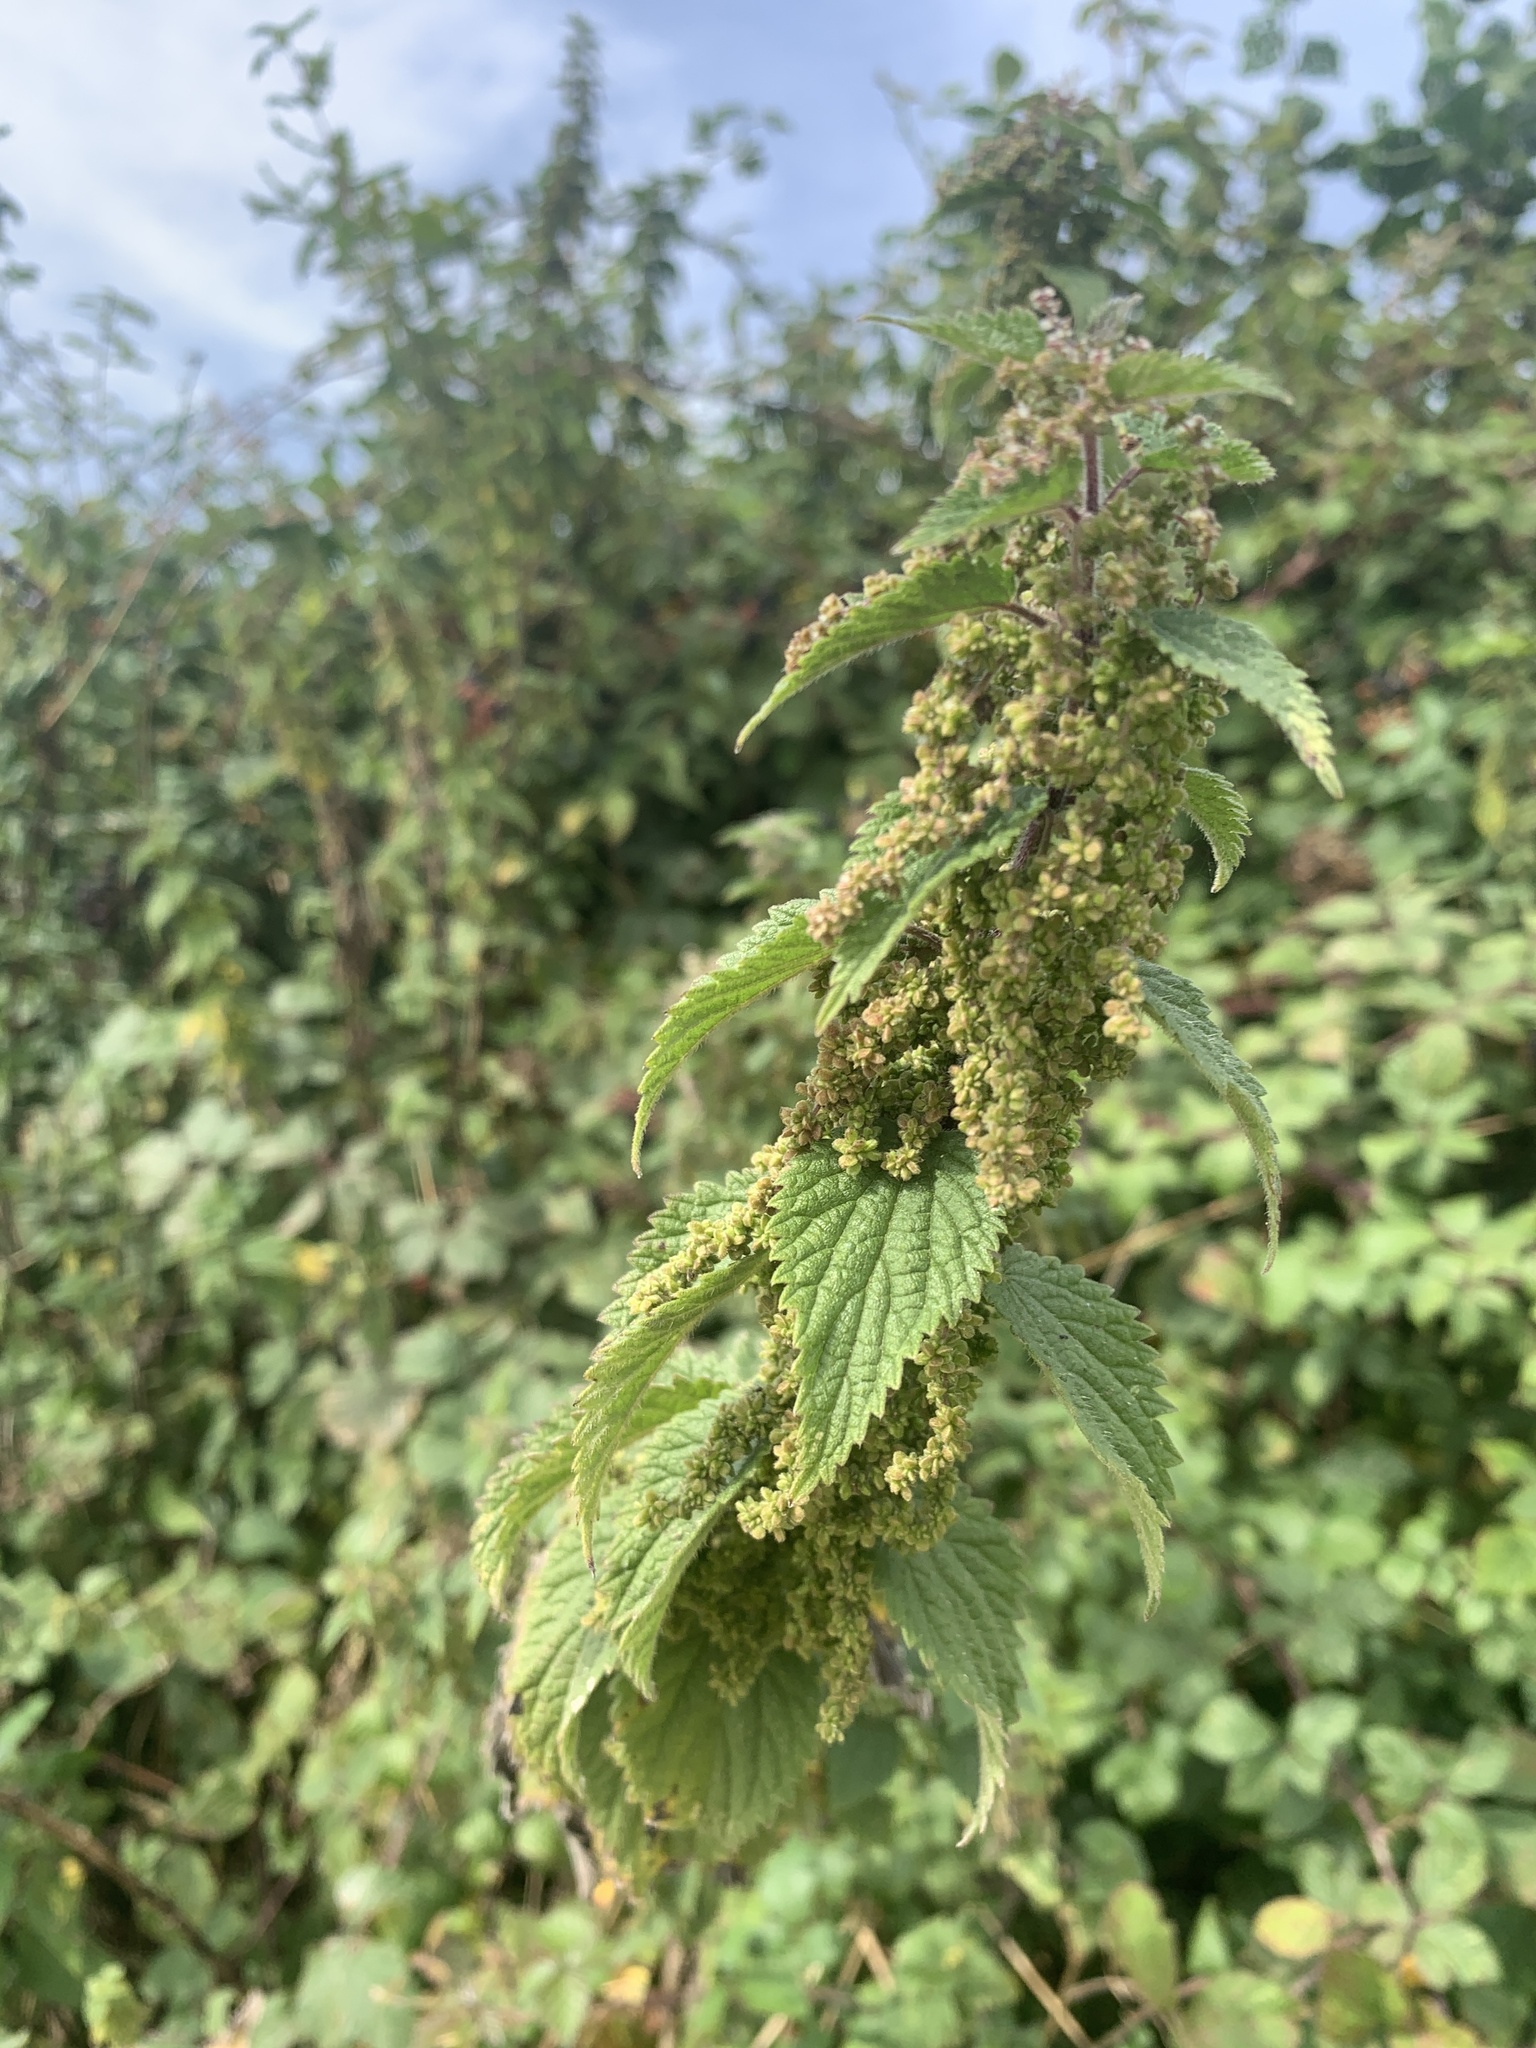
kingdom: Plantae
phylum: Tracheophyta
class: Magnoliopsida
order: Rosales
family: Urticaceae
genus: Urtica
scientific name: Urtica dioica
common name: Common nettle
